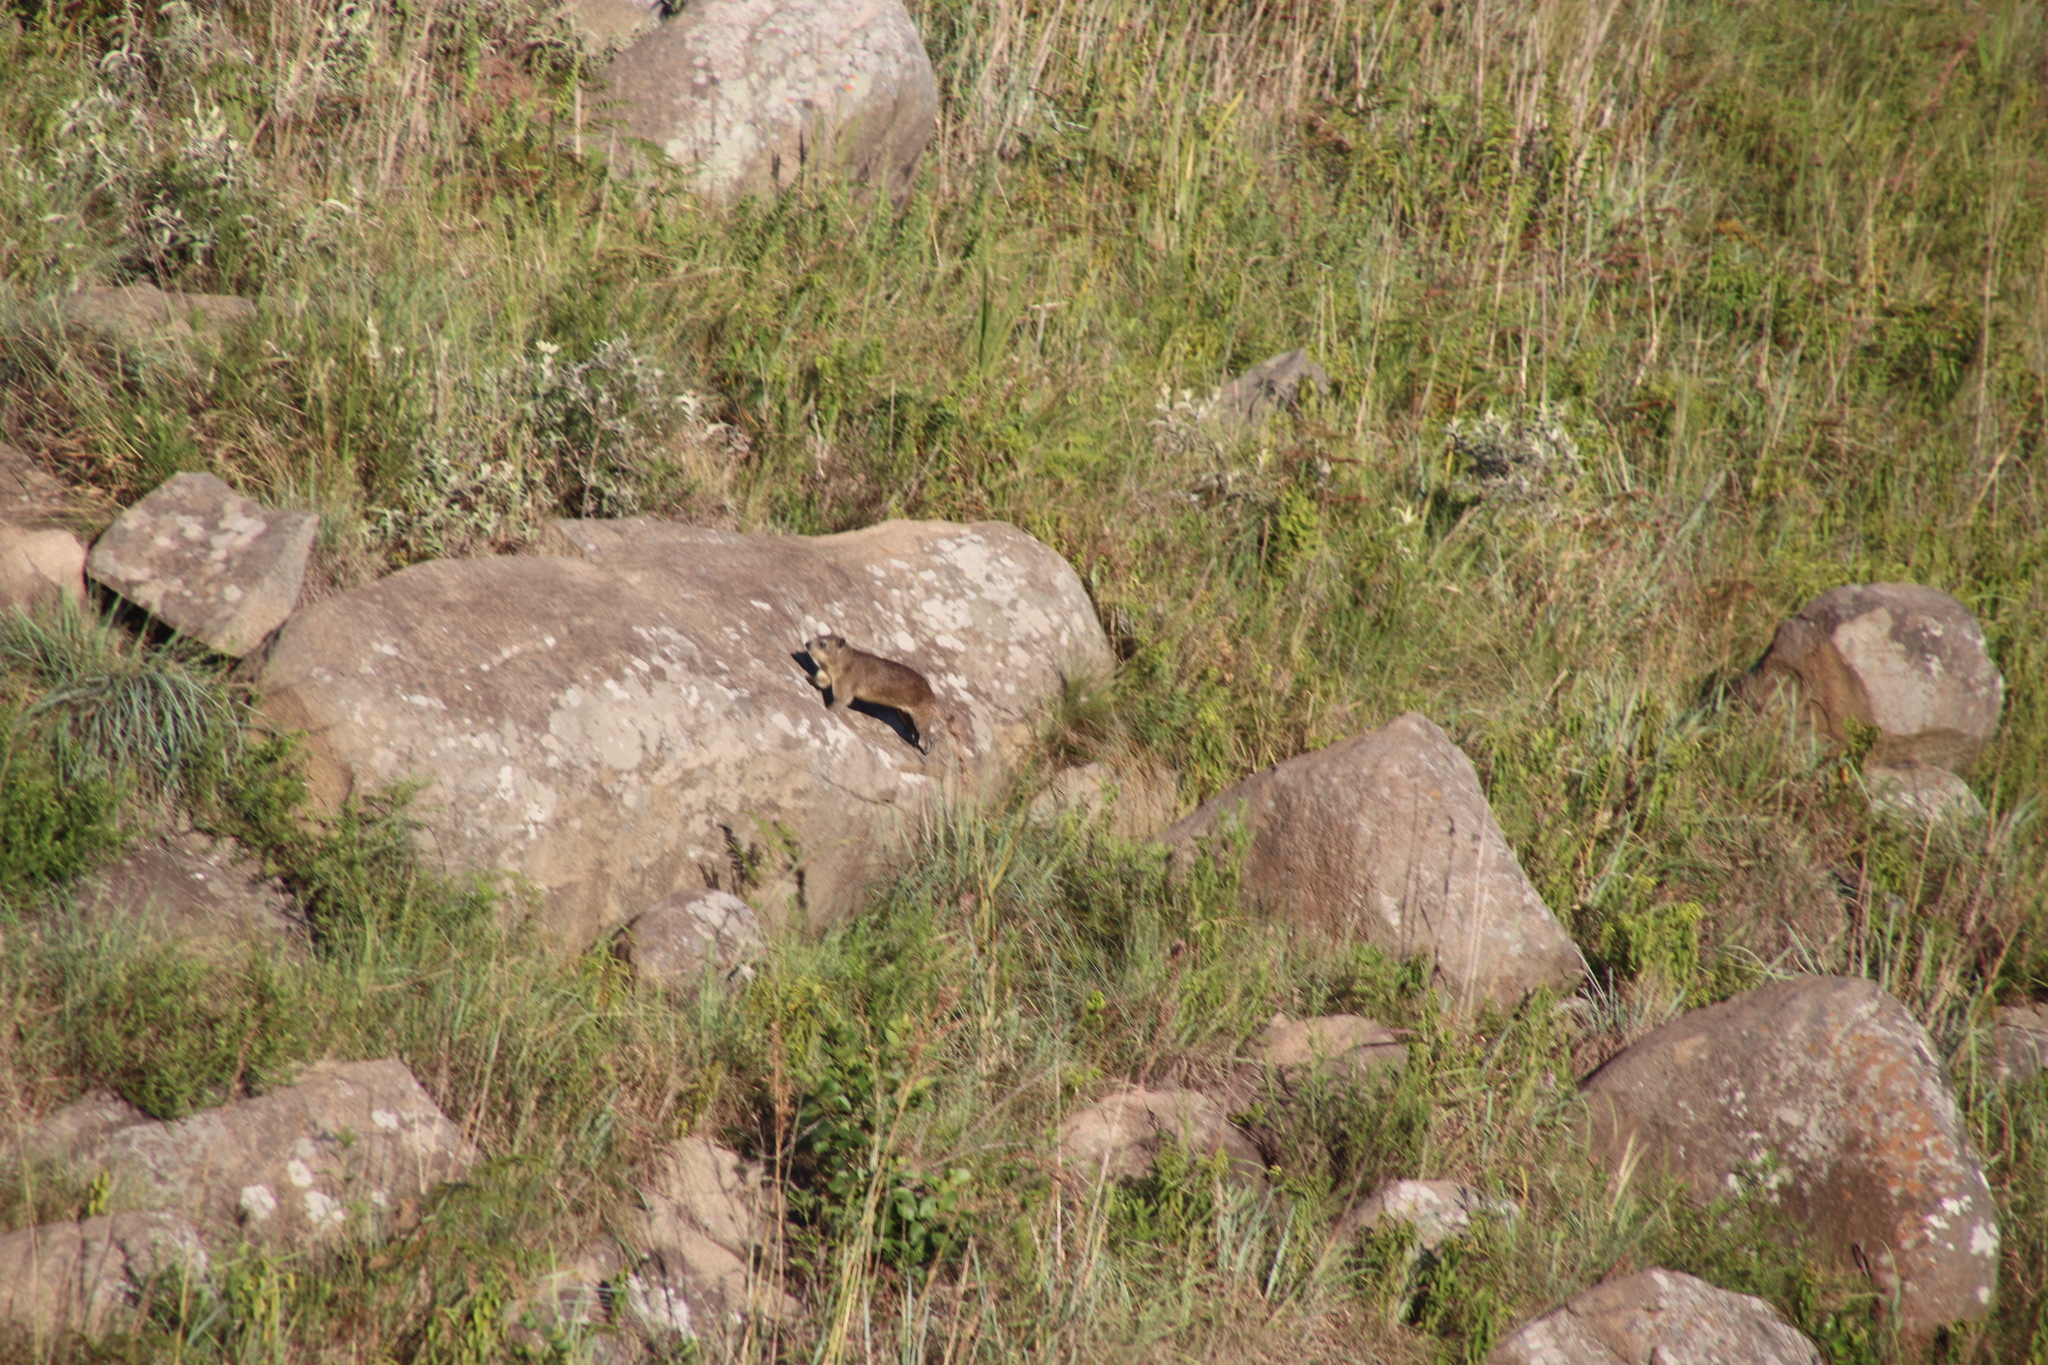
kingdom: Animalia
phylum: Chordata
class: Mammalia
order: Hyracoidea
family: Procaviidae
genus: Procavia
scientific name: Procavia capensis
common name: Rock hyrax
